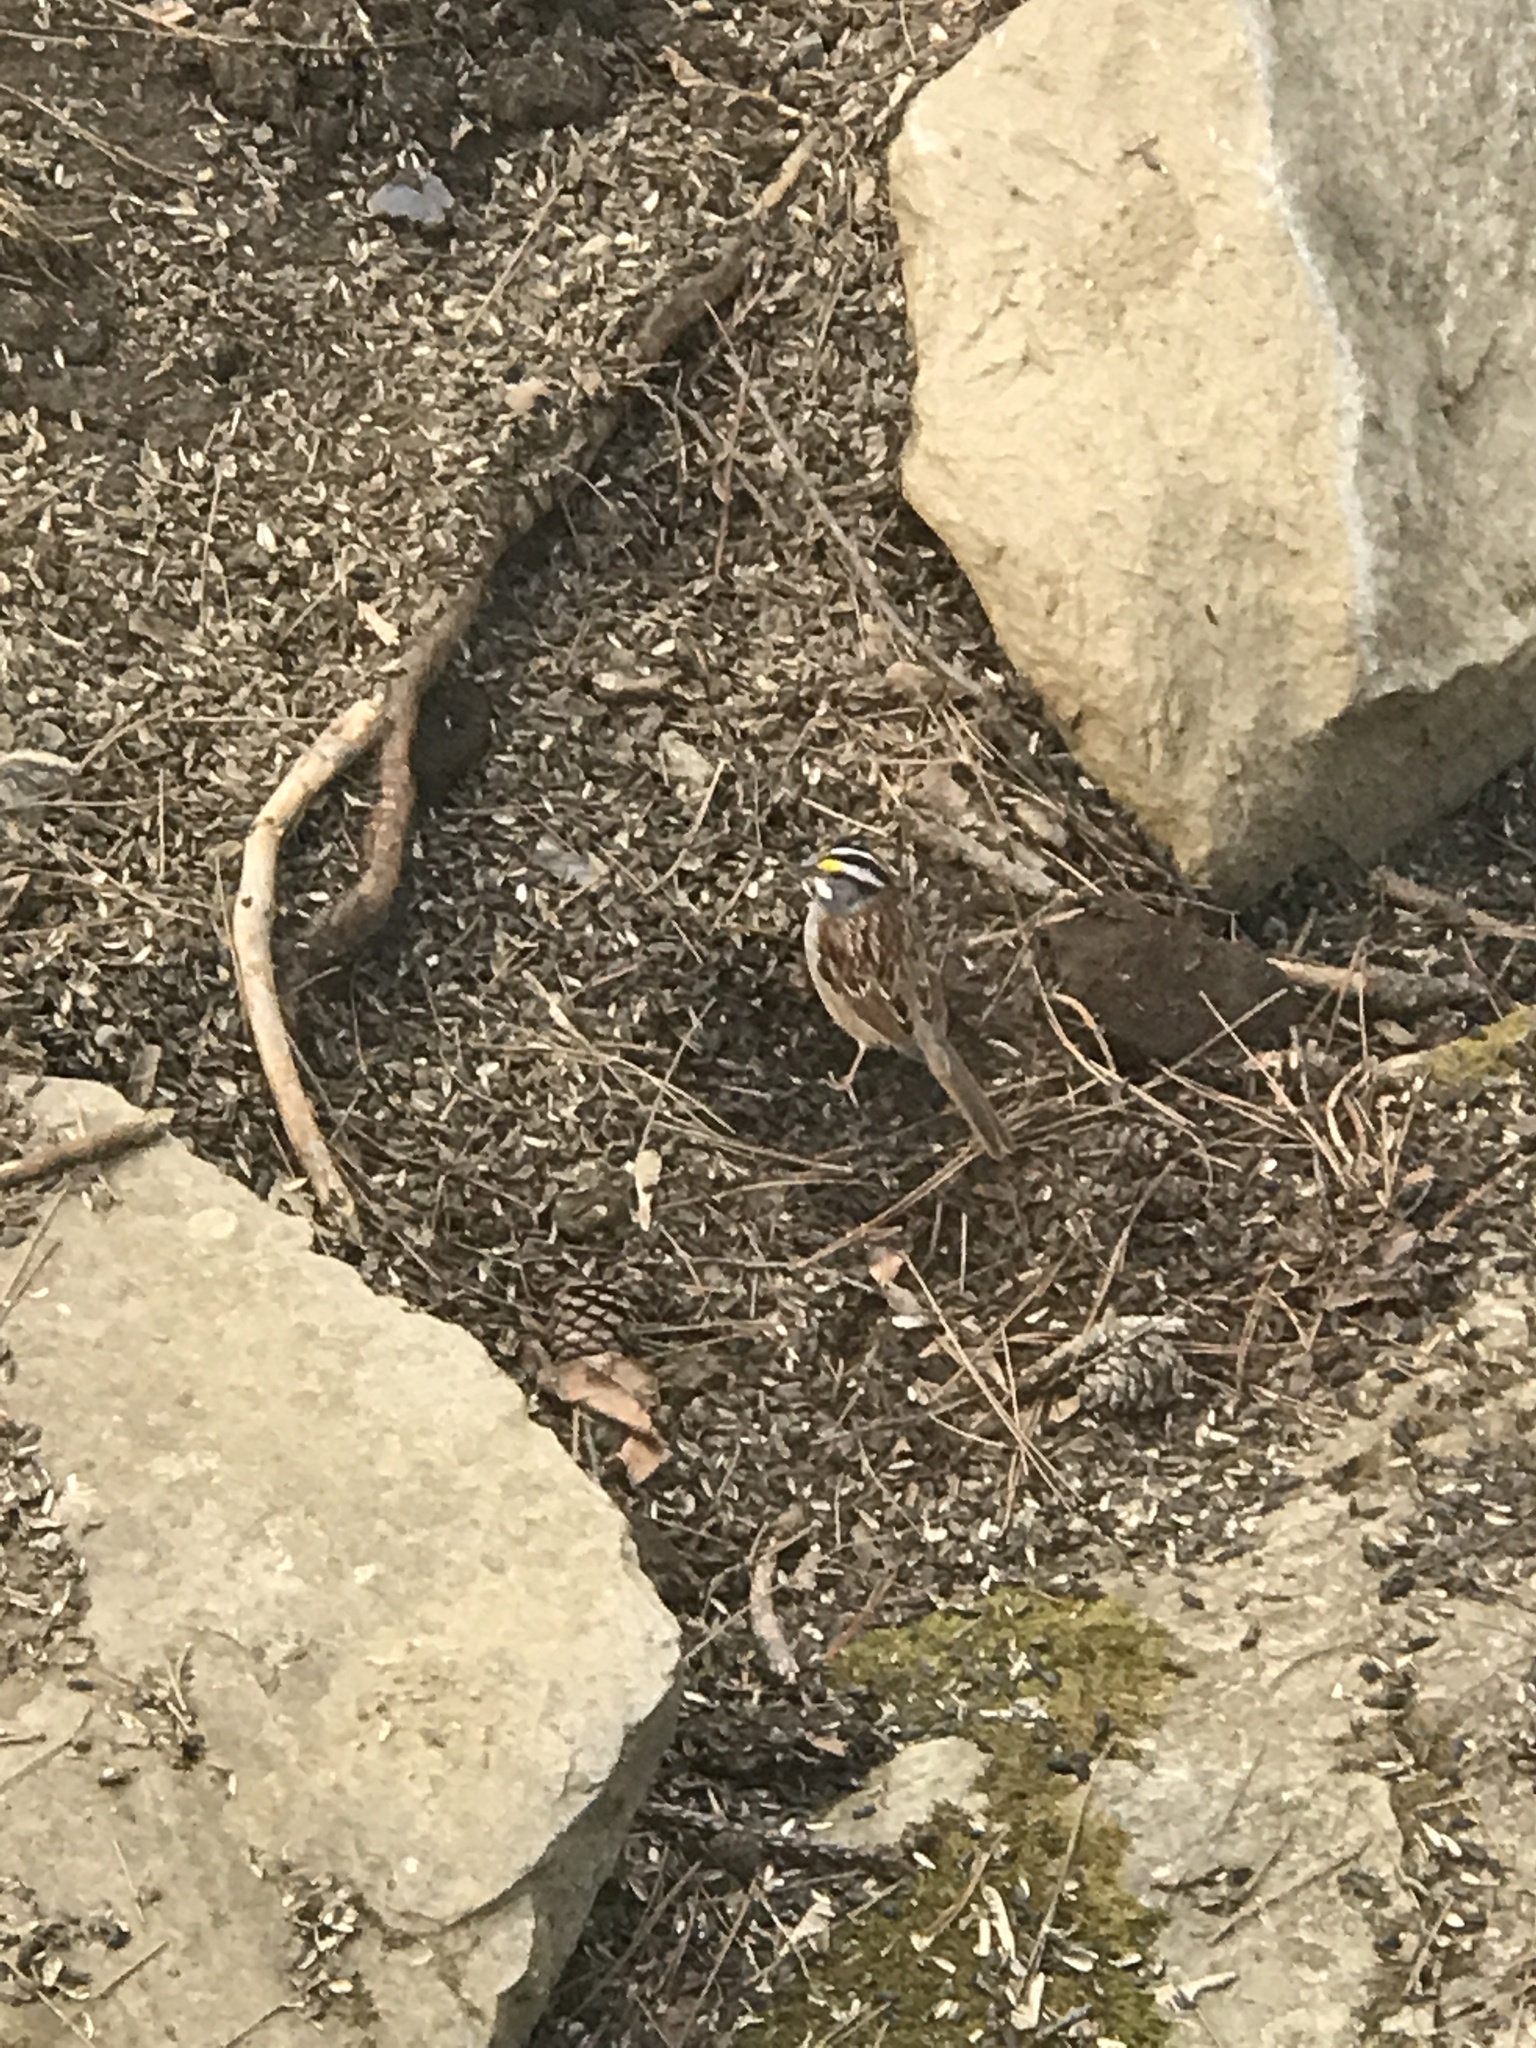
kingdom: Animalia
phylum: Chordata
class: Aves
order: Passeriformes
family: Passerellidae
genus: Zonotrichia
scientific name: Zonotrichia albicollis
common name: White-throated sparrow
